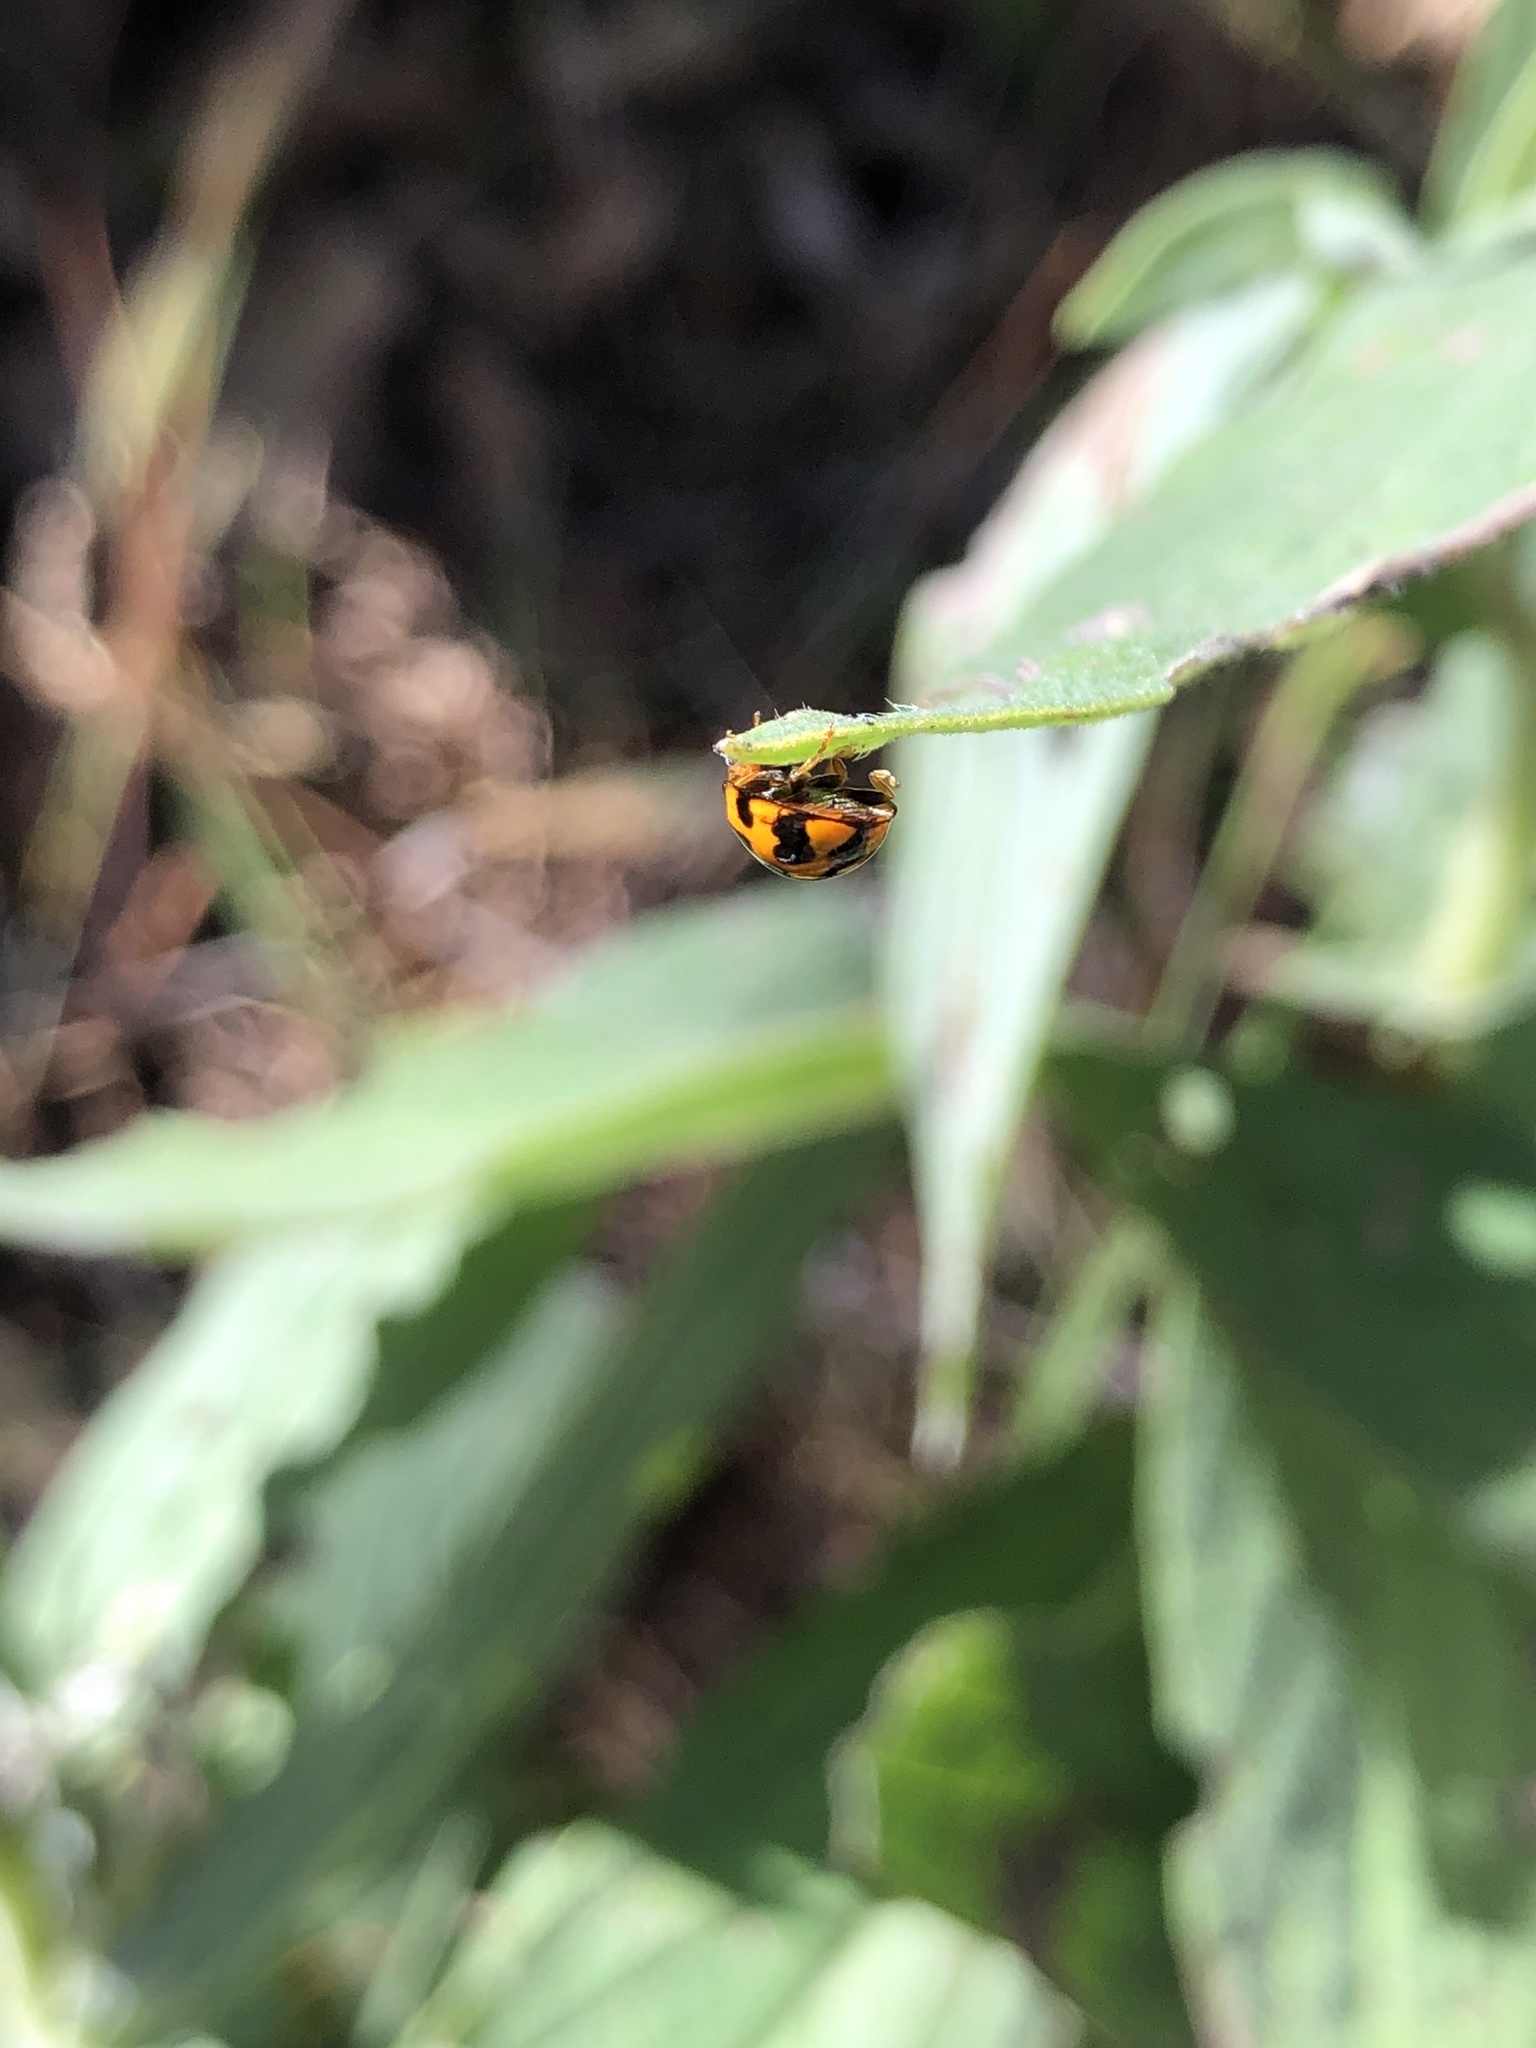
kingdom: Animalia
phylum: Arthropoda
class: Insecta
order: Coleoptera
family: Coccinellidae
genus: Coelophora
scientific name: Coelophora inaequalis
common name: Common australian lady beetle
